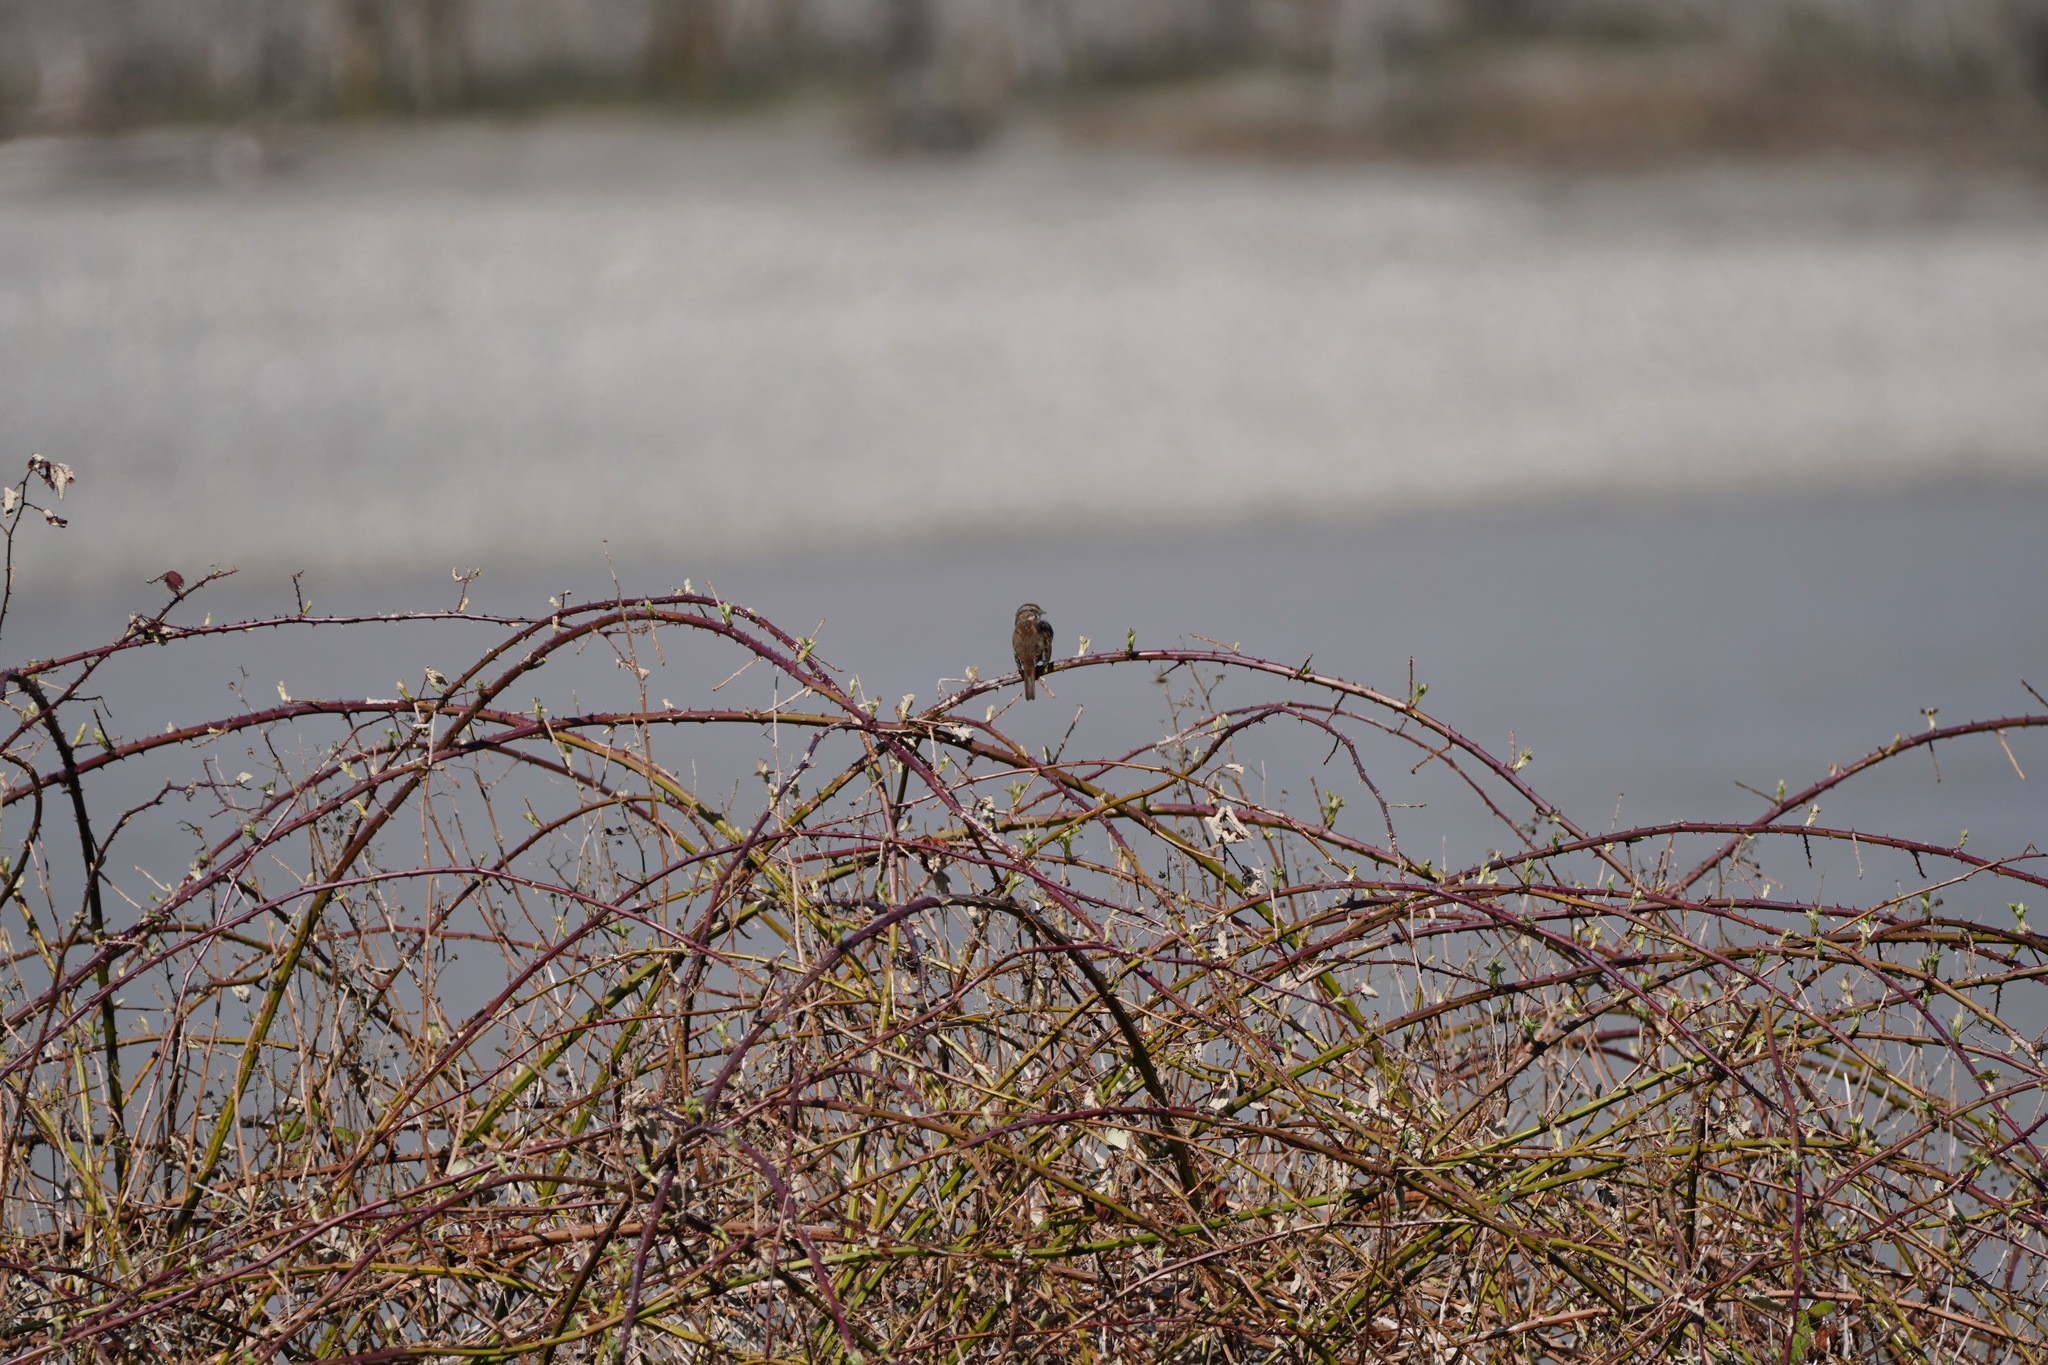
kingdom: Animalia
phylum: Chordata
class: Aves
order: Passeriformes
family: Passerellidae
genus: Melospiza
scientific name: Melospiza melodia
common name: Song sparrow
